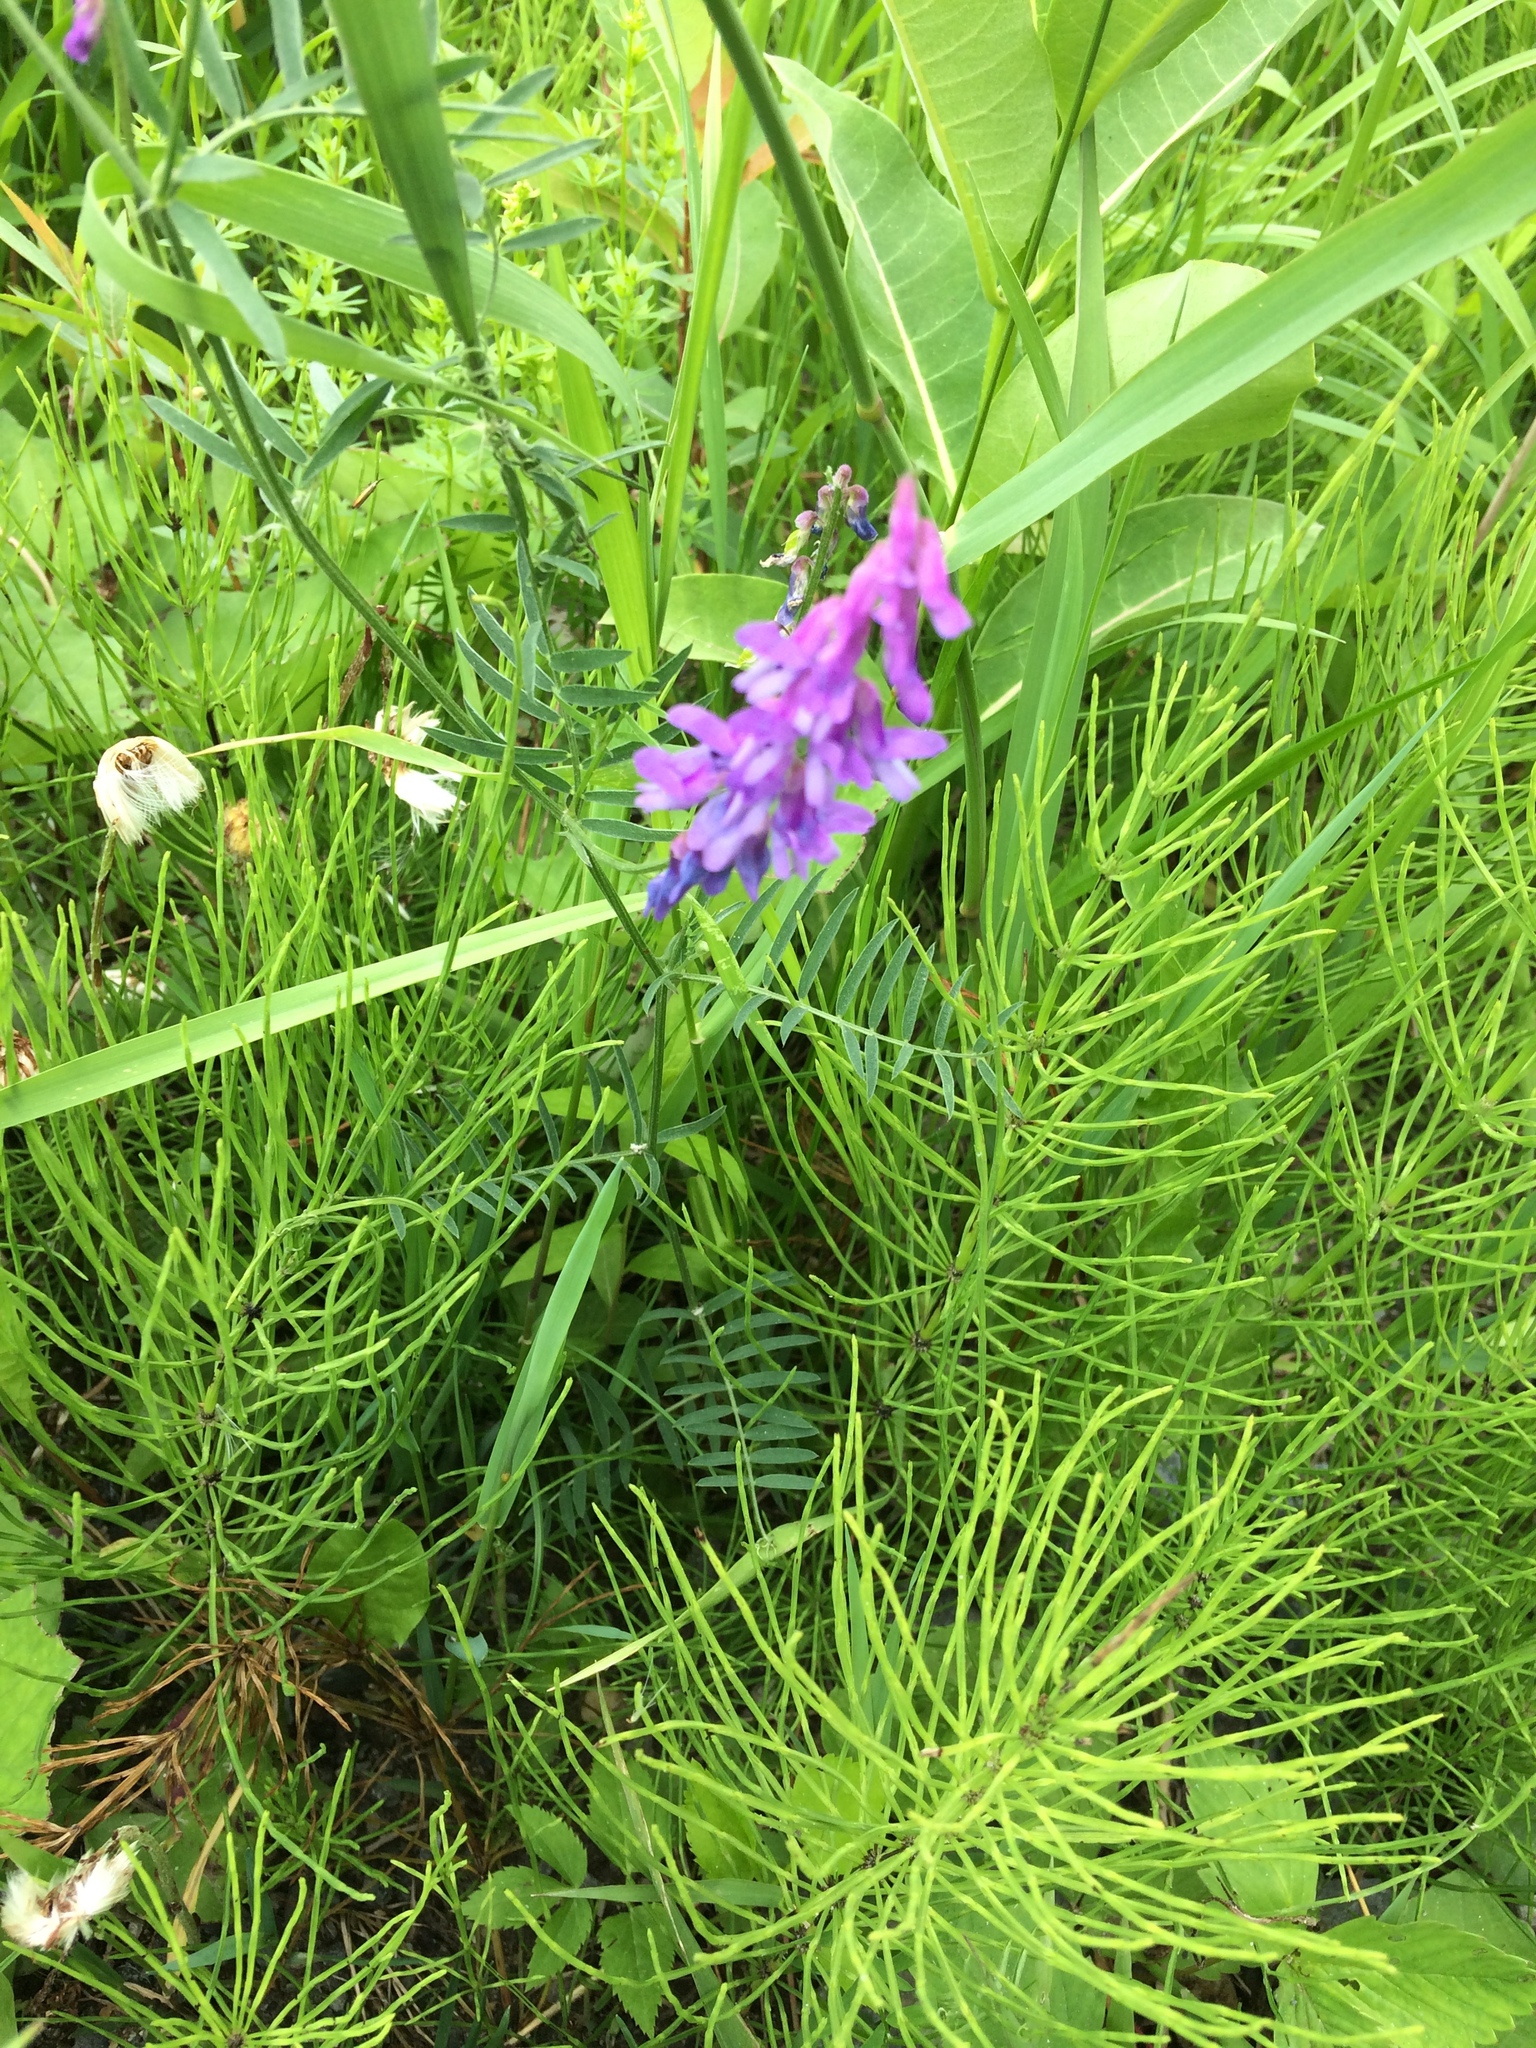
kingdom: Plantae
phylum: Tracheophyta
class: Magnoliopsida
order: Fabales
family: Fabaceae
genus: Vicia
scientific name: Vicia cracca
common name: Bird vetch
